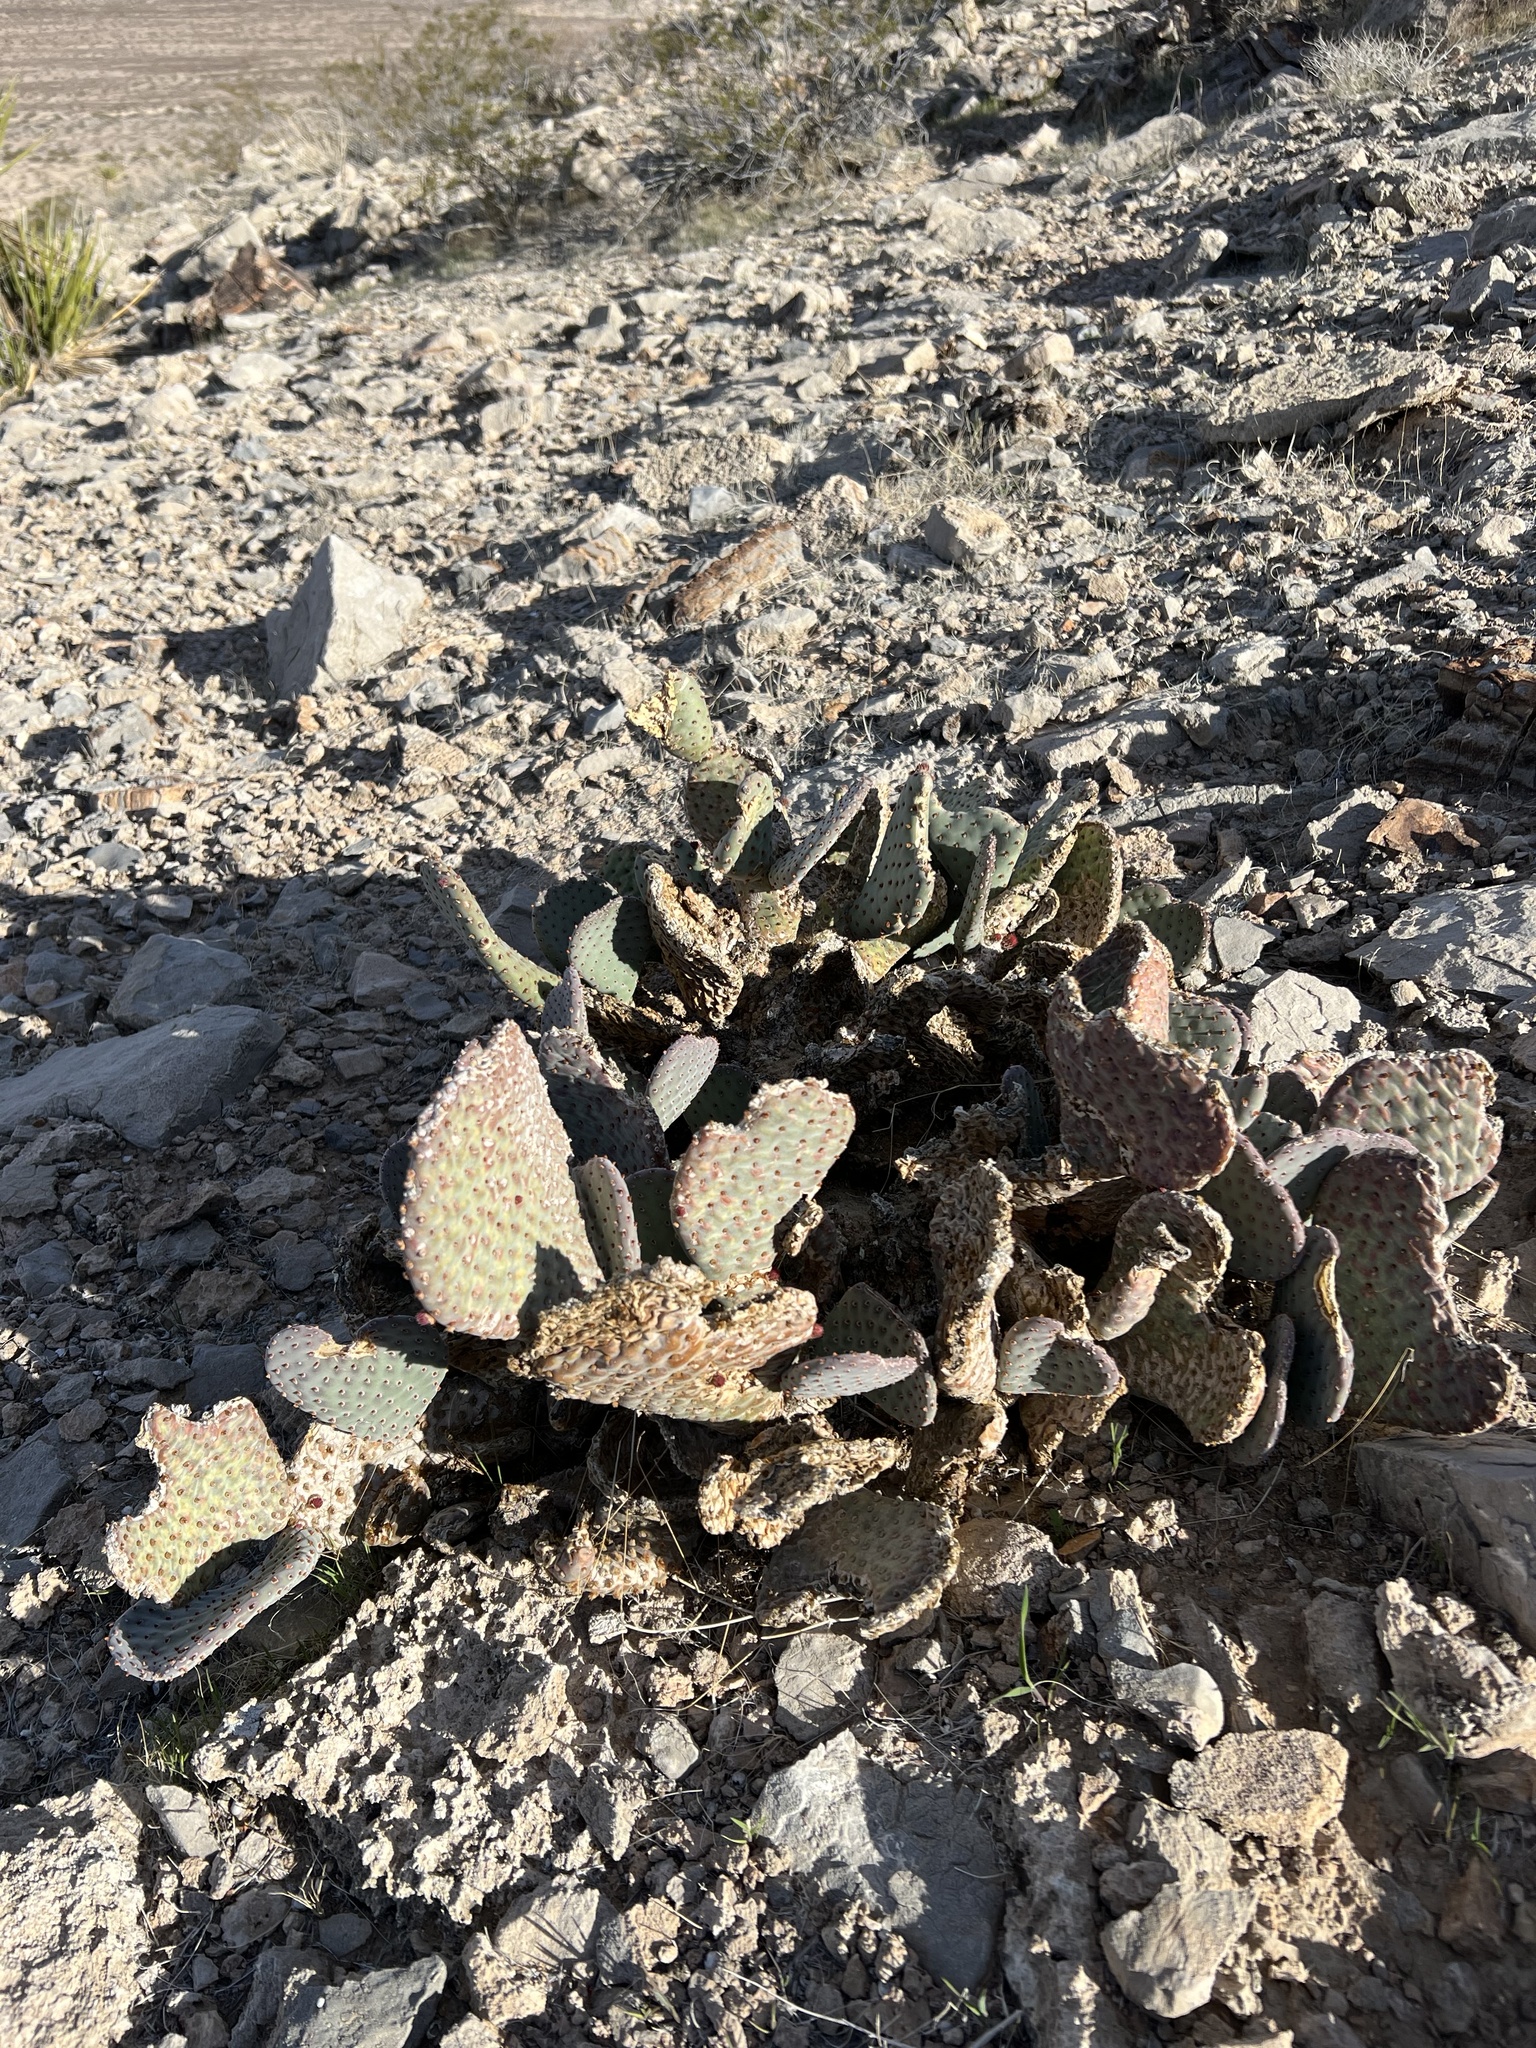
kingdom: Plantae
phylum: Tracheophyta
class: Magnoliopsida
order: Caryophyllales
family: Cactaceae
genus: Opuntia
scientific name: Opuntia basilaris
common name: Beavertail prickly-pear
